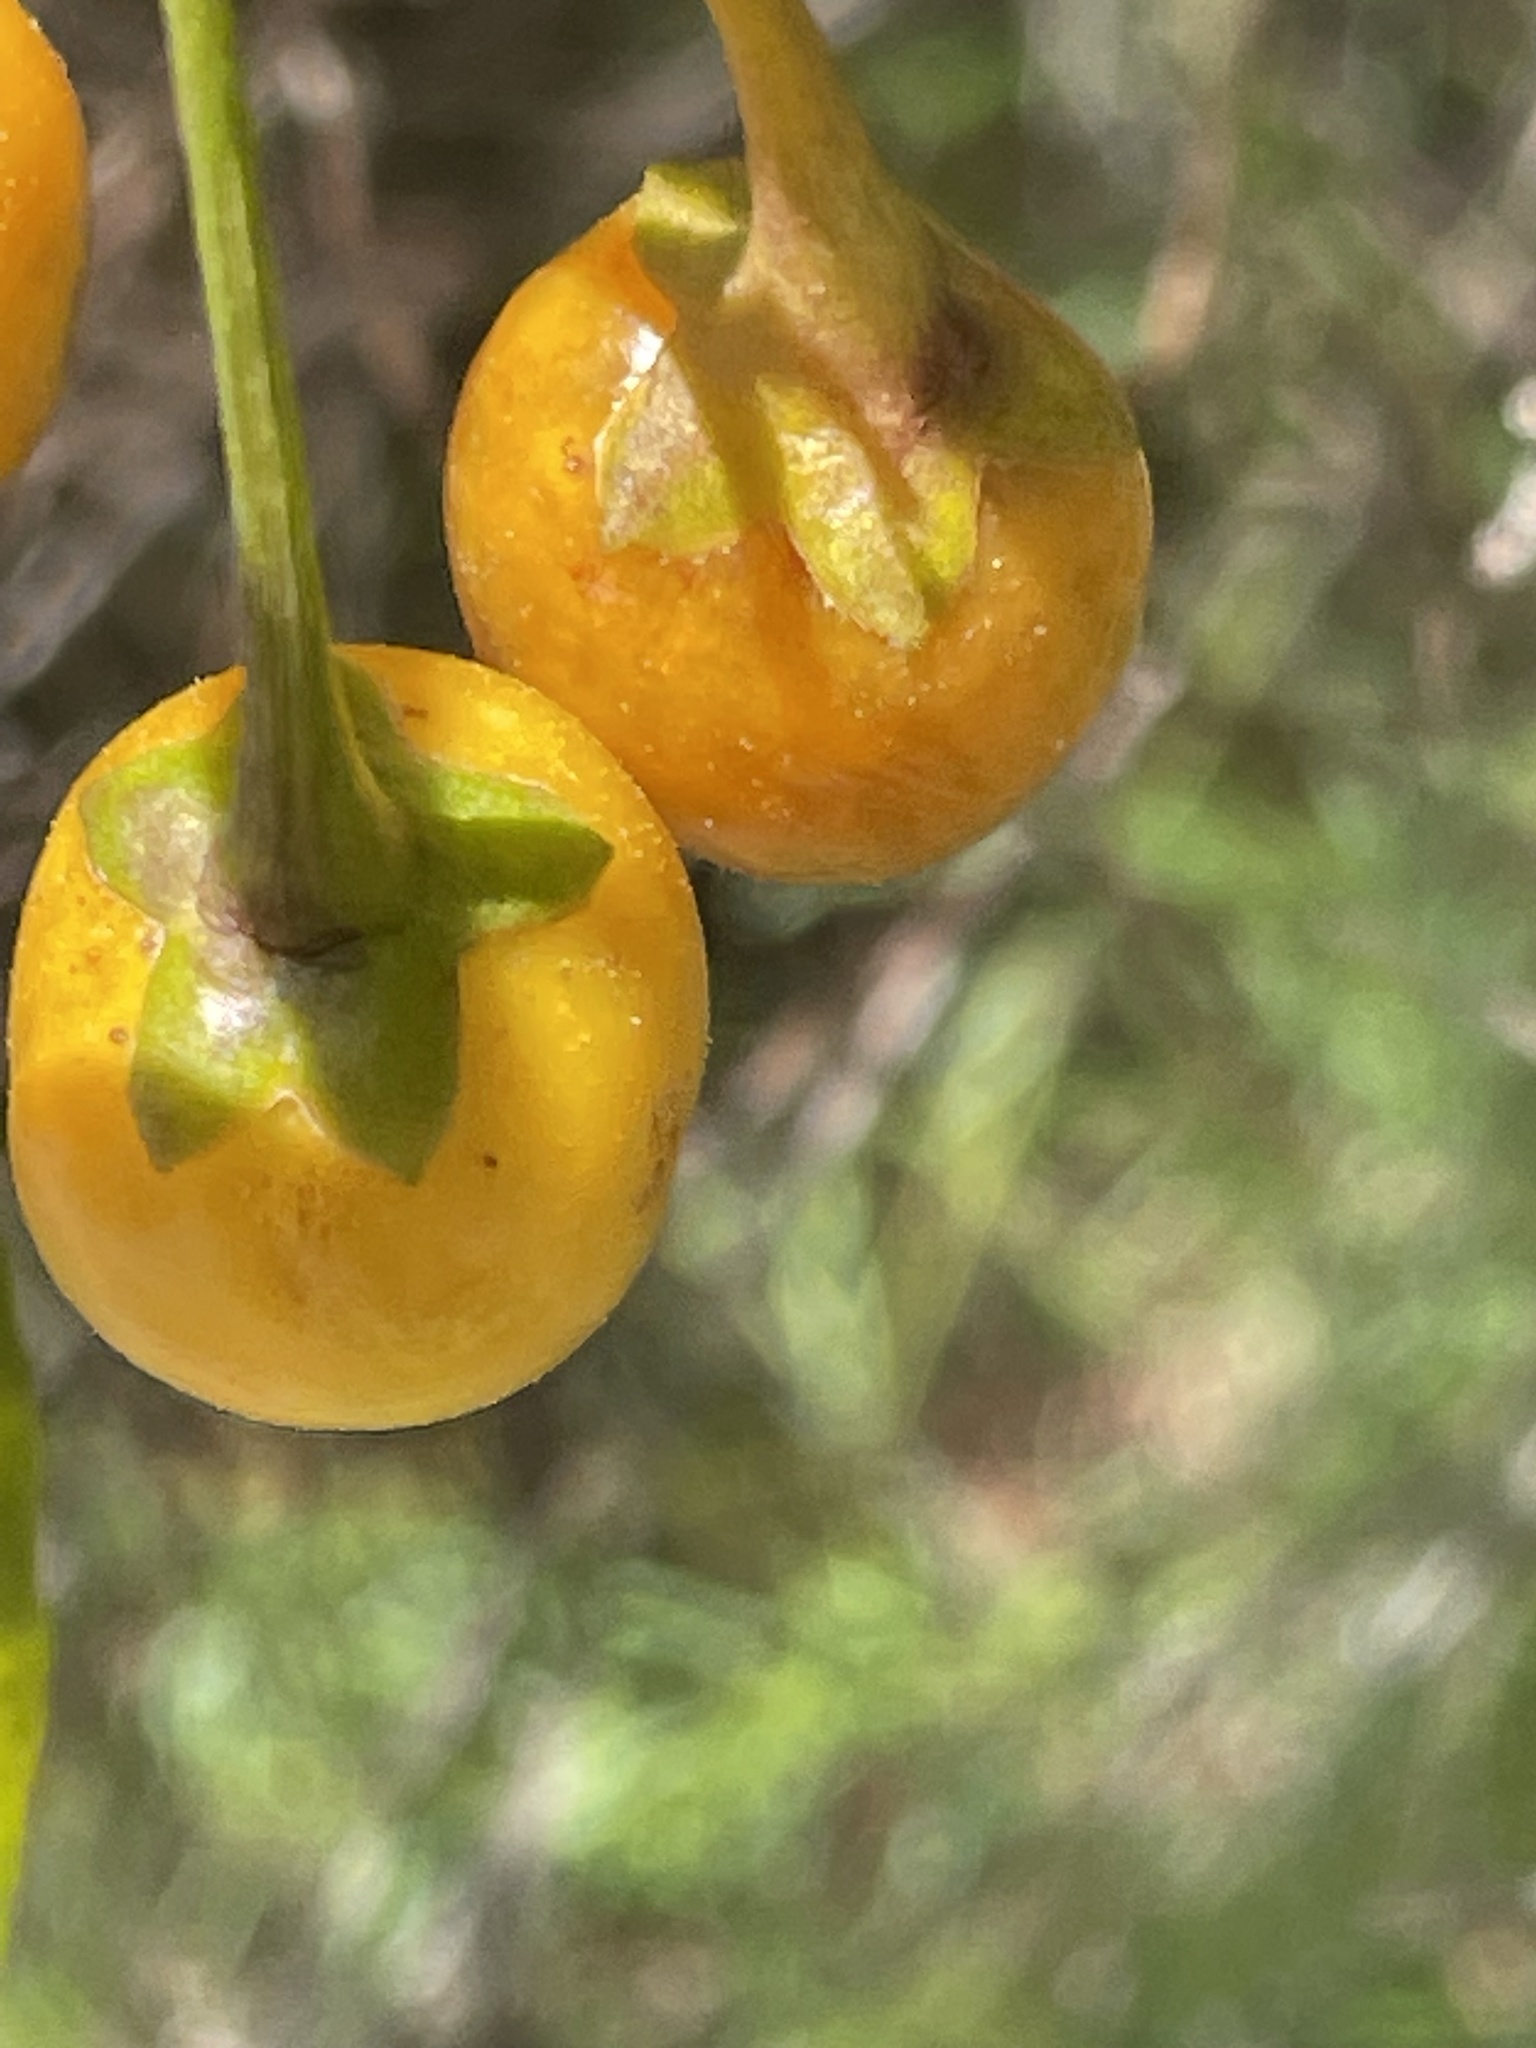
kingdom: Plantae
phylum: Tracheophyta
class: Magnoliopsida
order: Solanales
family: Solanaceae
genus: Solanum
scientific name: Solanum linearifolium
